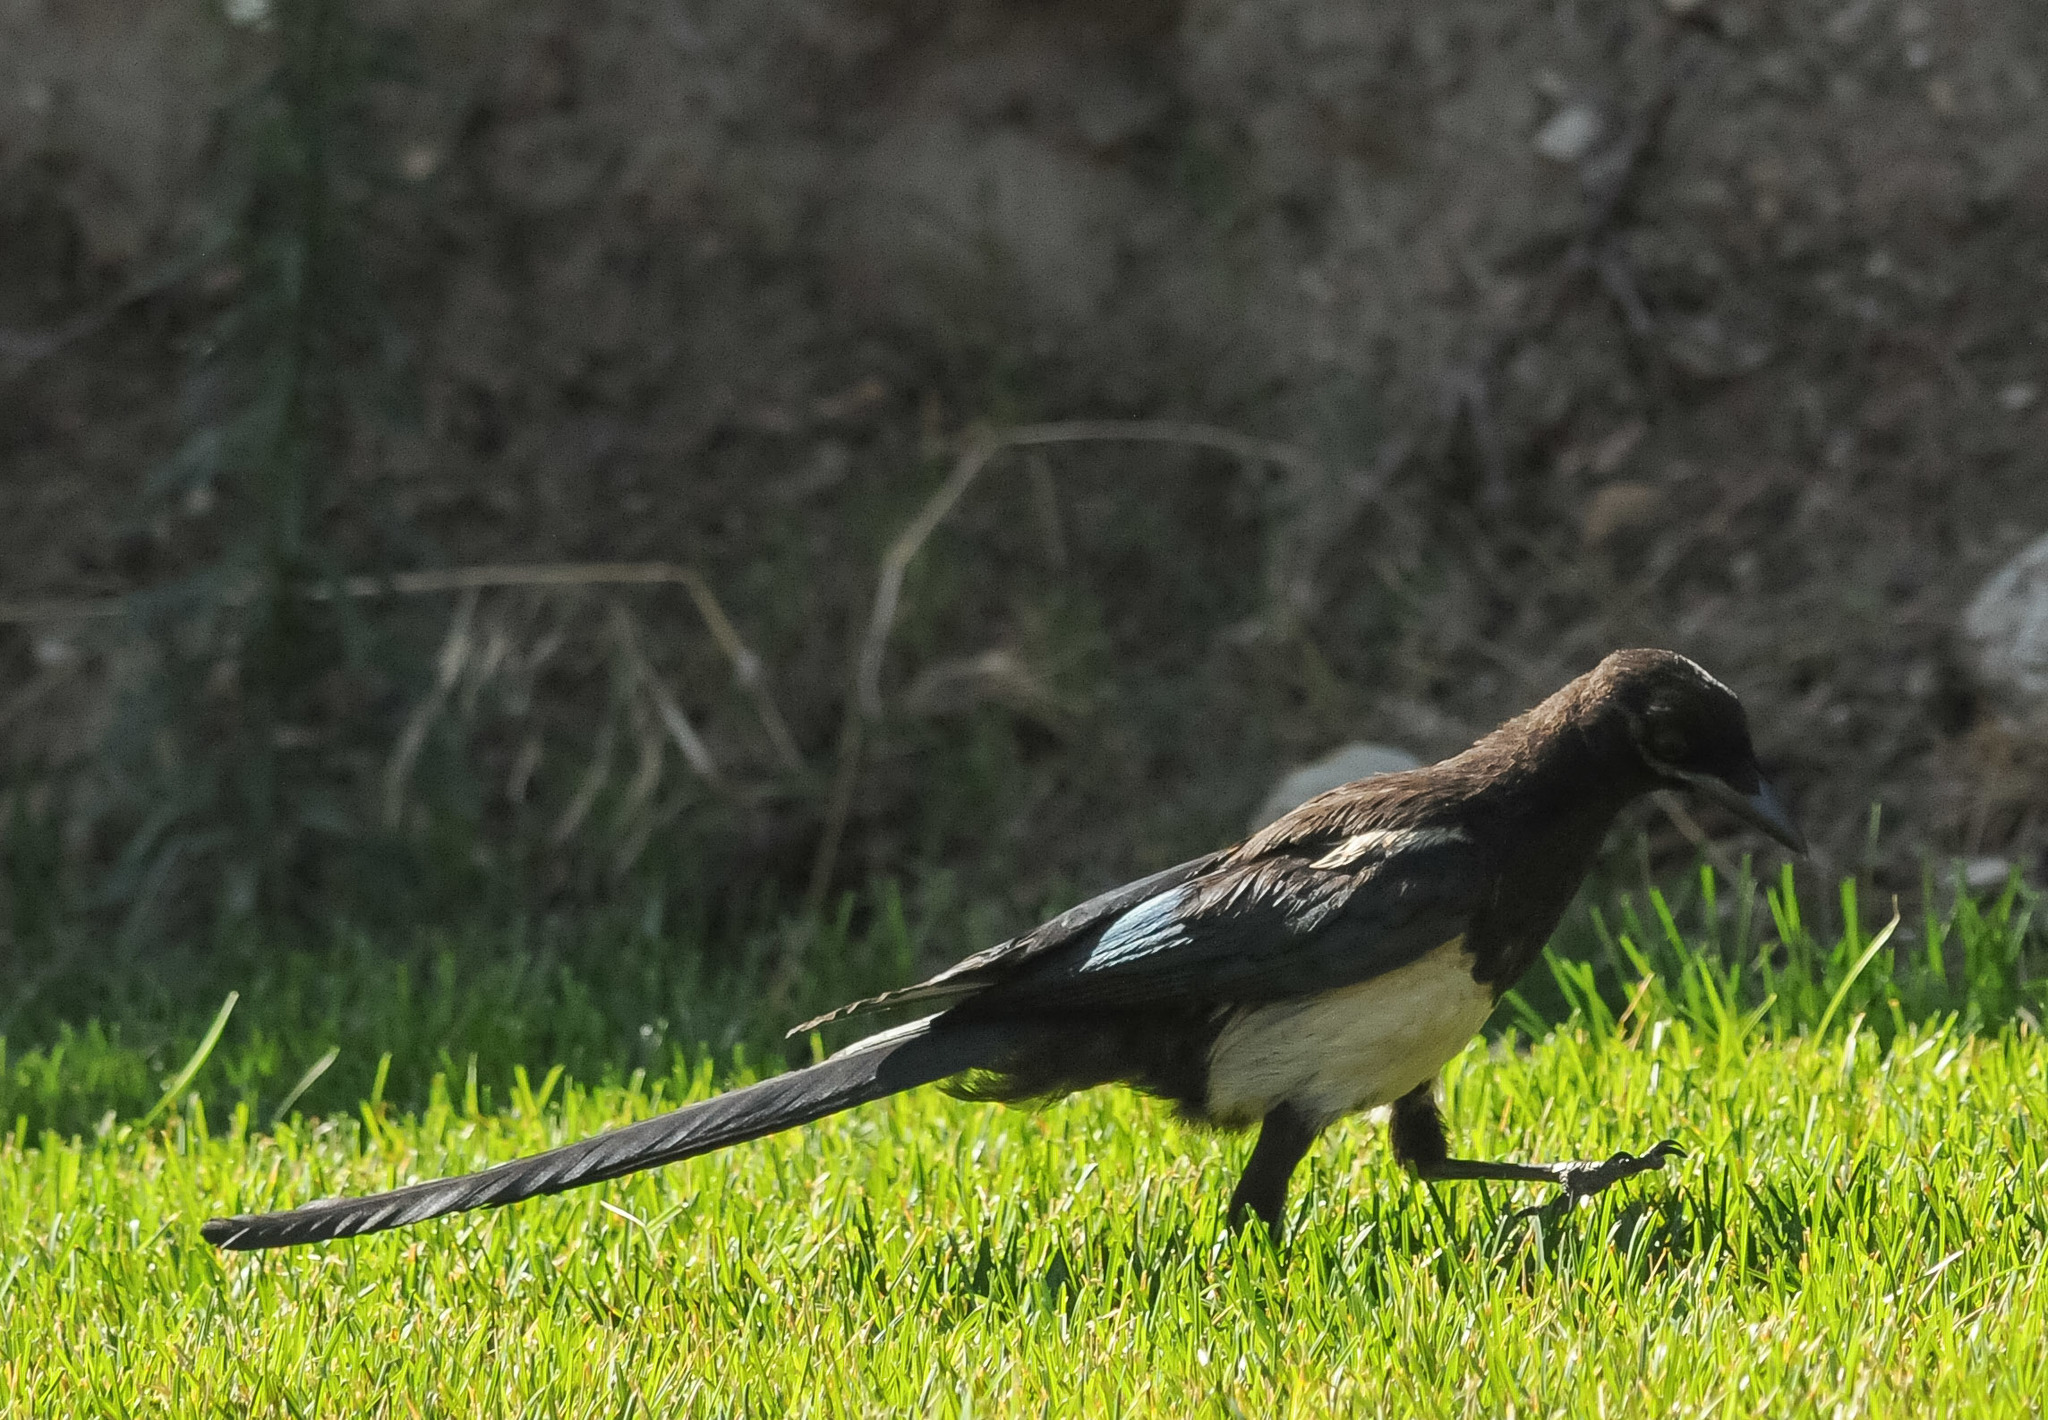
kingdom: Animalia
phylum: Chordata
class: Aves
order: Passeriformes
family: Corvidae
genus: Pica
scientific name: Pica hudsonia
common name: Black-billed magpie
